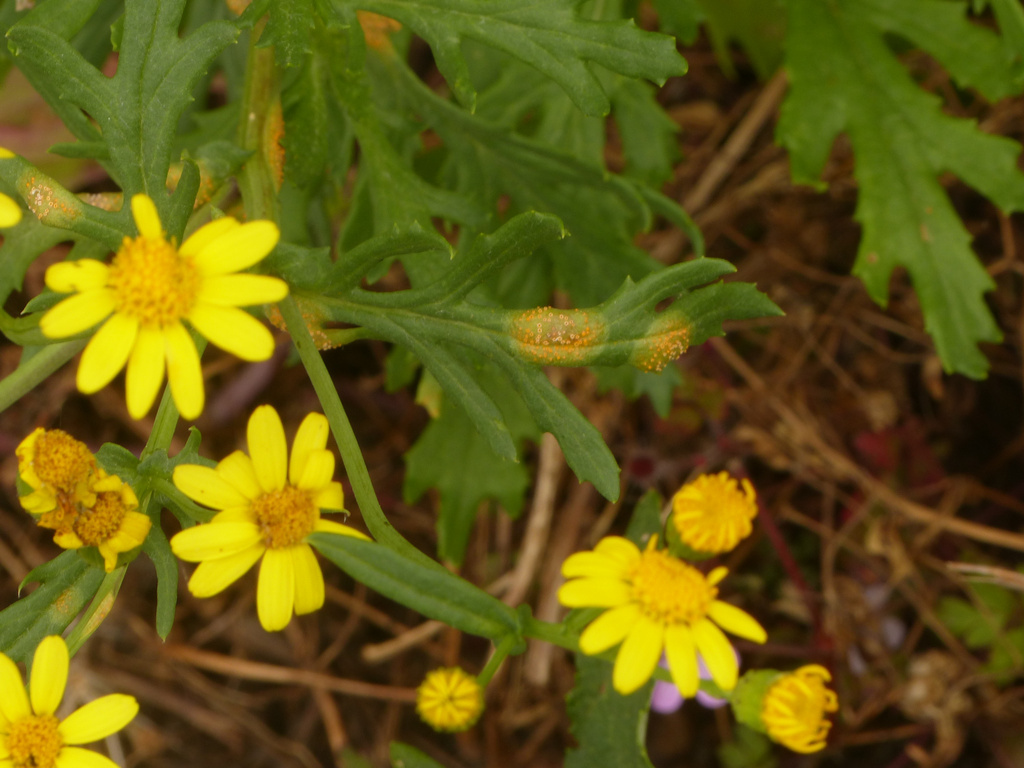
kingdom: Fungi
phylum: Basidiomycota
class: Pucciniomycetes
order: Pucciniales
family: Pucciniaceae
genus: Puccinia
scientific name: Puccinia lagenophorae
